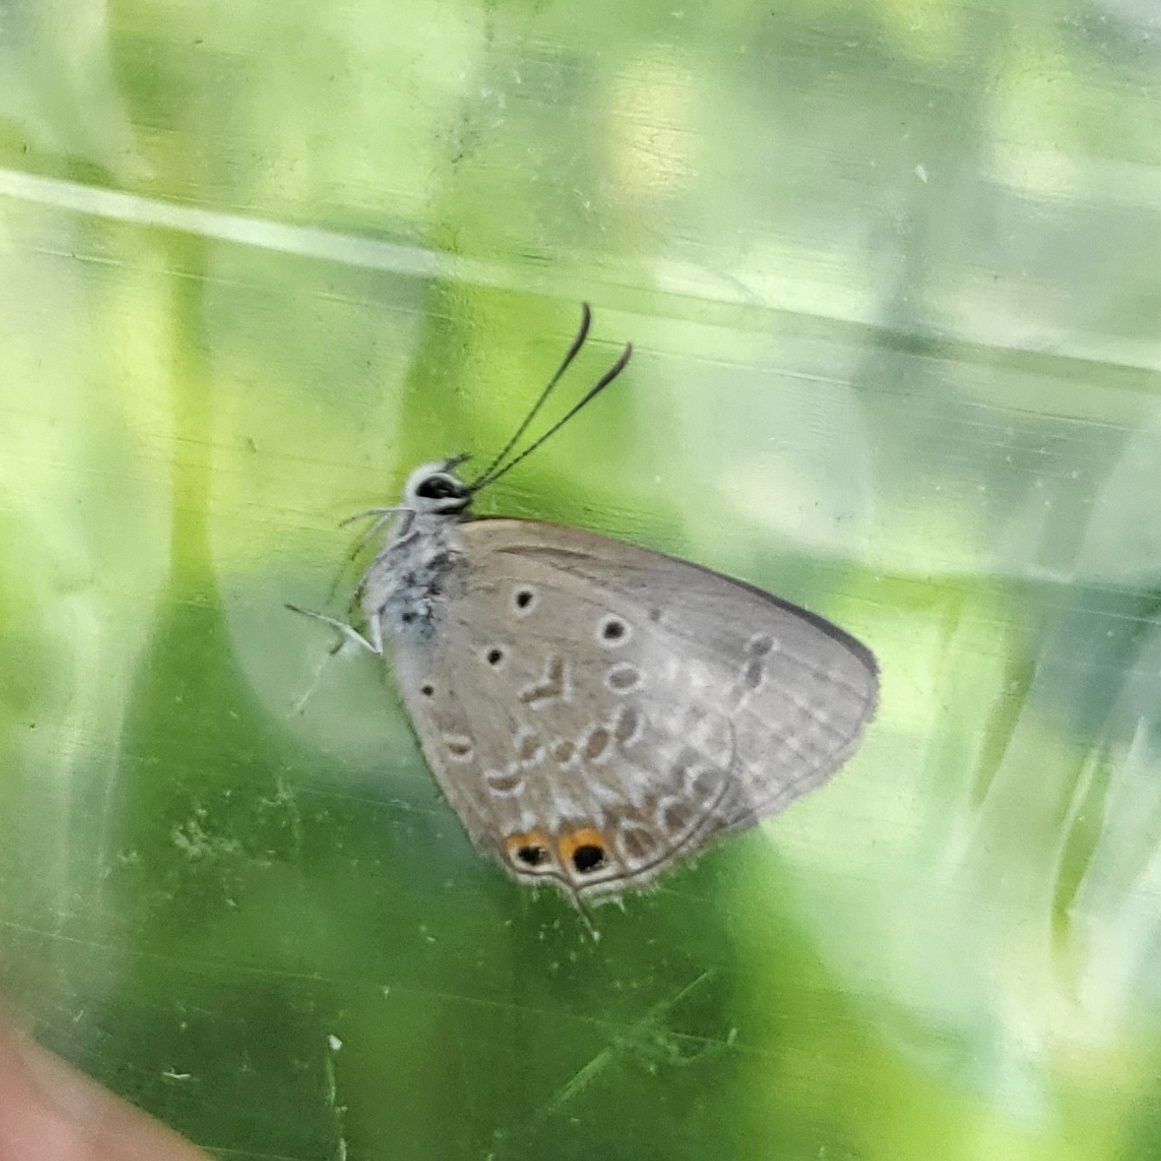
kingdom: Animalia
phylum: Arthropoda
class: Insecta
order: Lepidoptera
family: Lycaenidae
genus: Euchrysops
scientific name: Euchrysops cnejus
